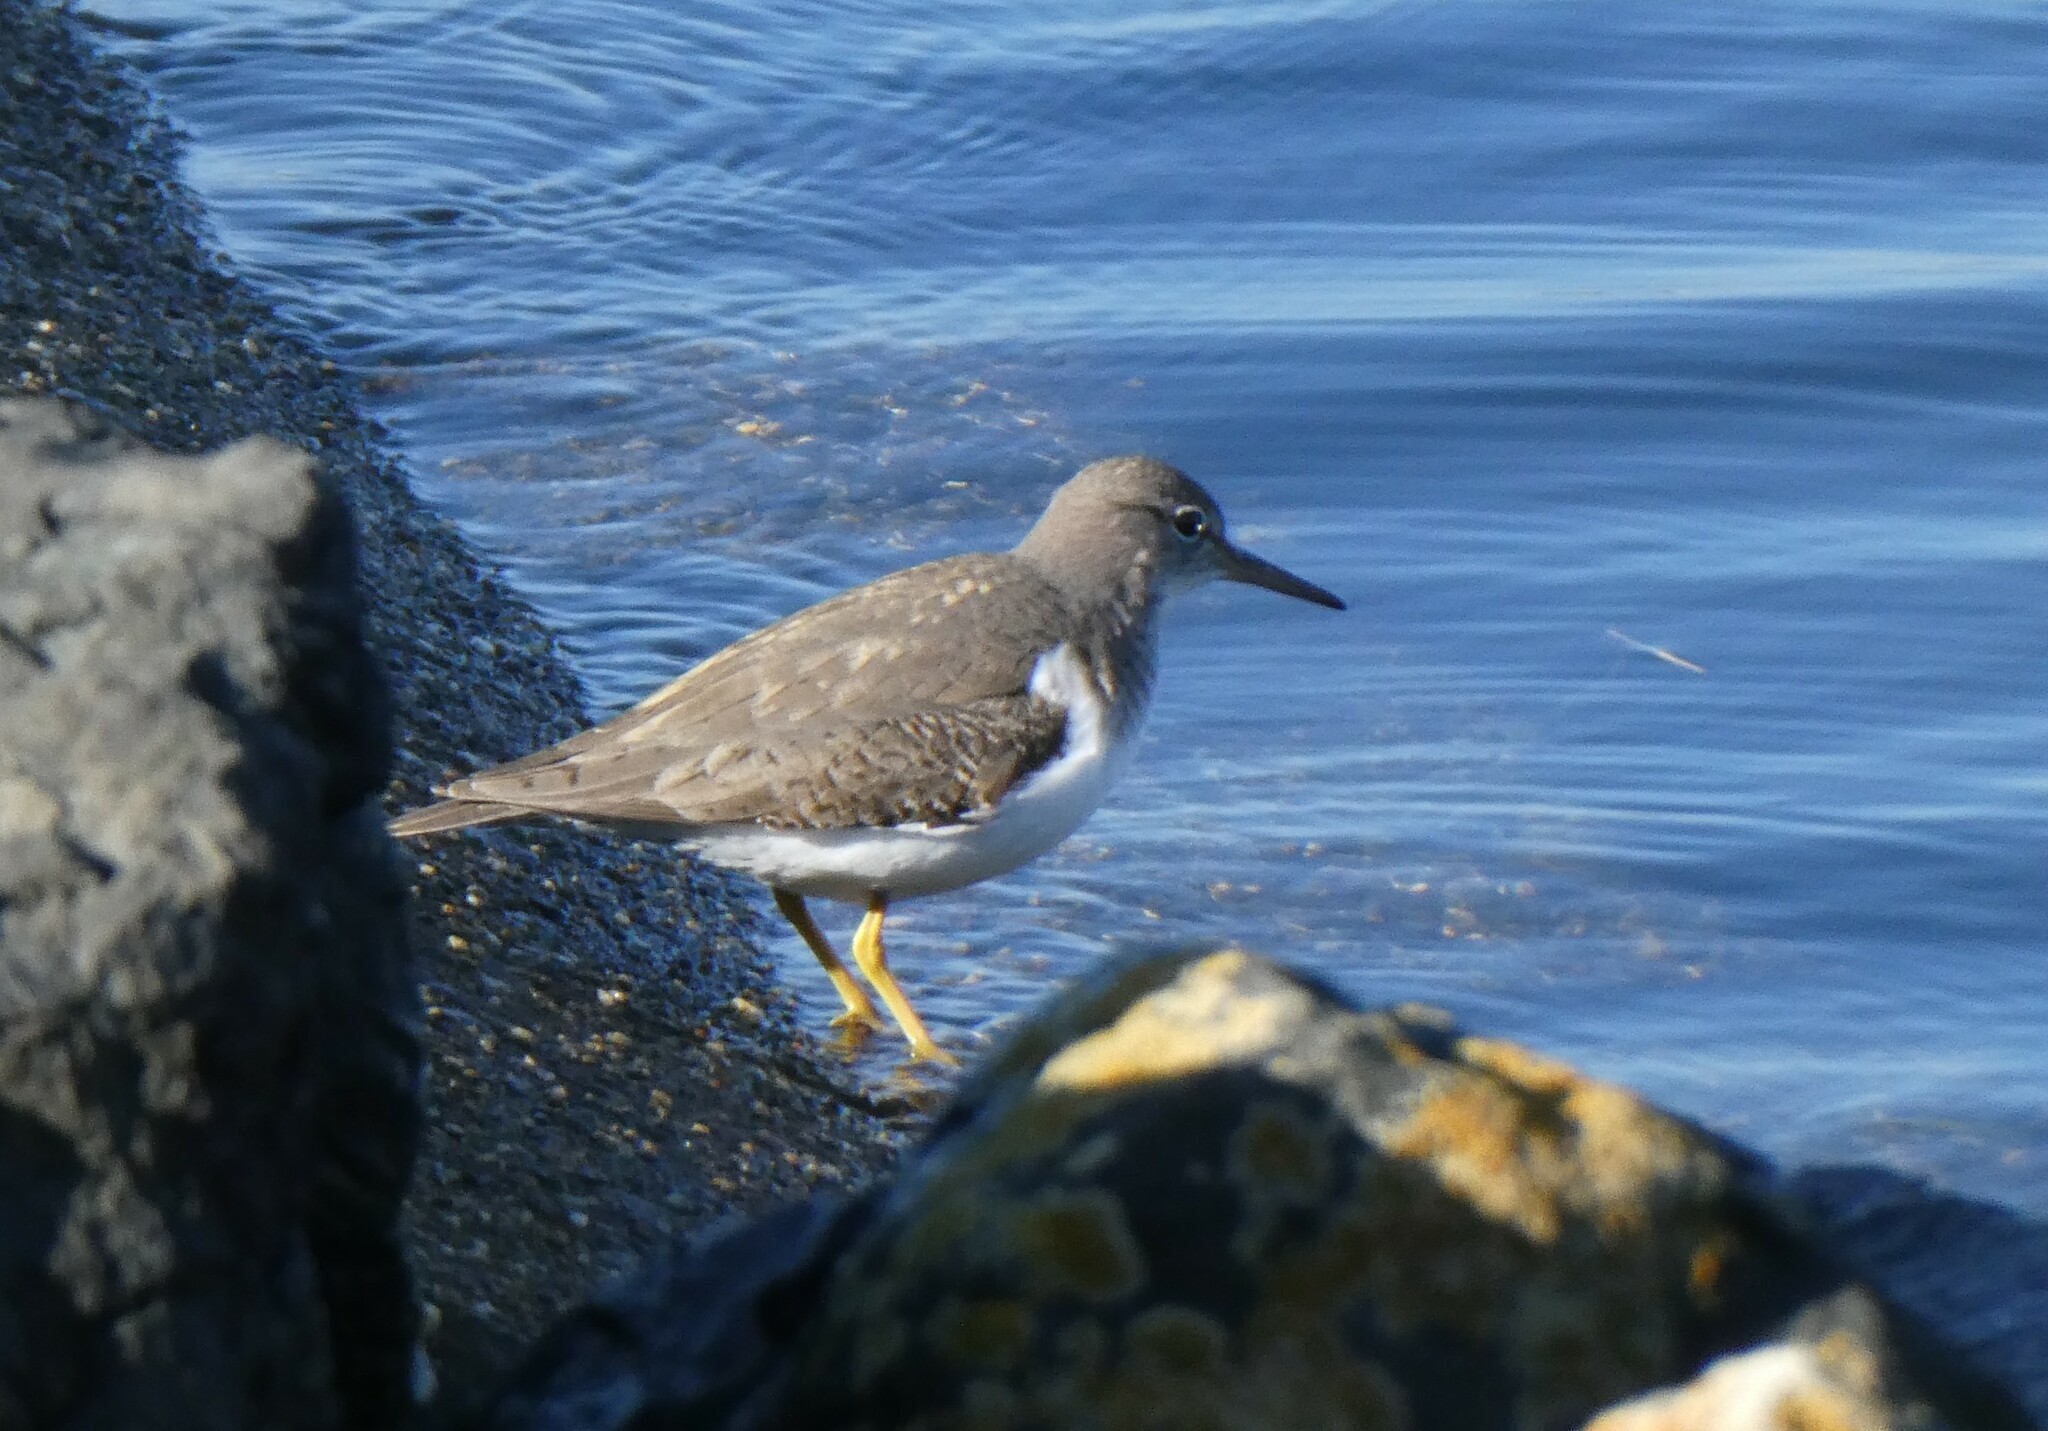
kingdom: Animalia
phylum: Chordata
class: Aves
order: Charadriiformes
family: Scolopacidae
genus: Actitis
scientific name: Actitis macularius
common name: Spotted sandpiper
